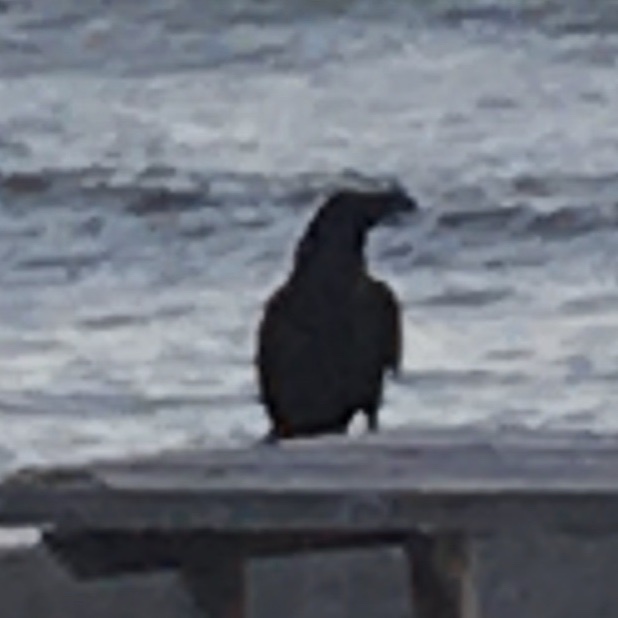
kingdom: Animalia
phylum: Chordata
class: Aves
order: Passeriformes
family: Corvidae
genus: Corvus
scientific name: Corvus corax
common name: Common raven
